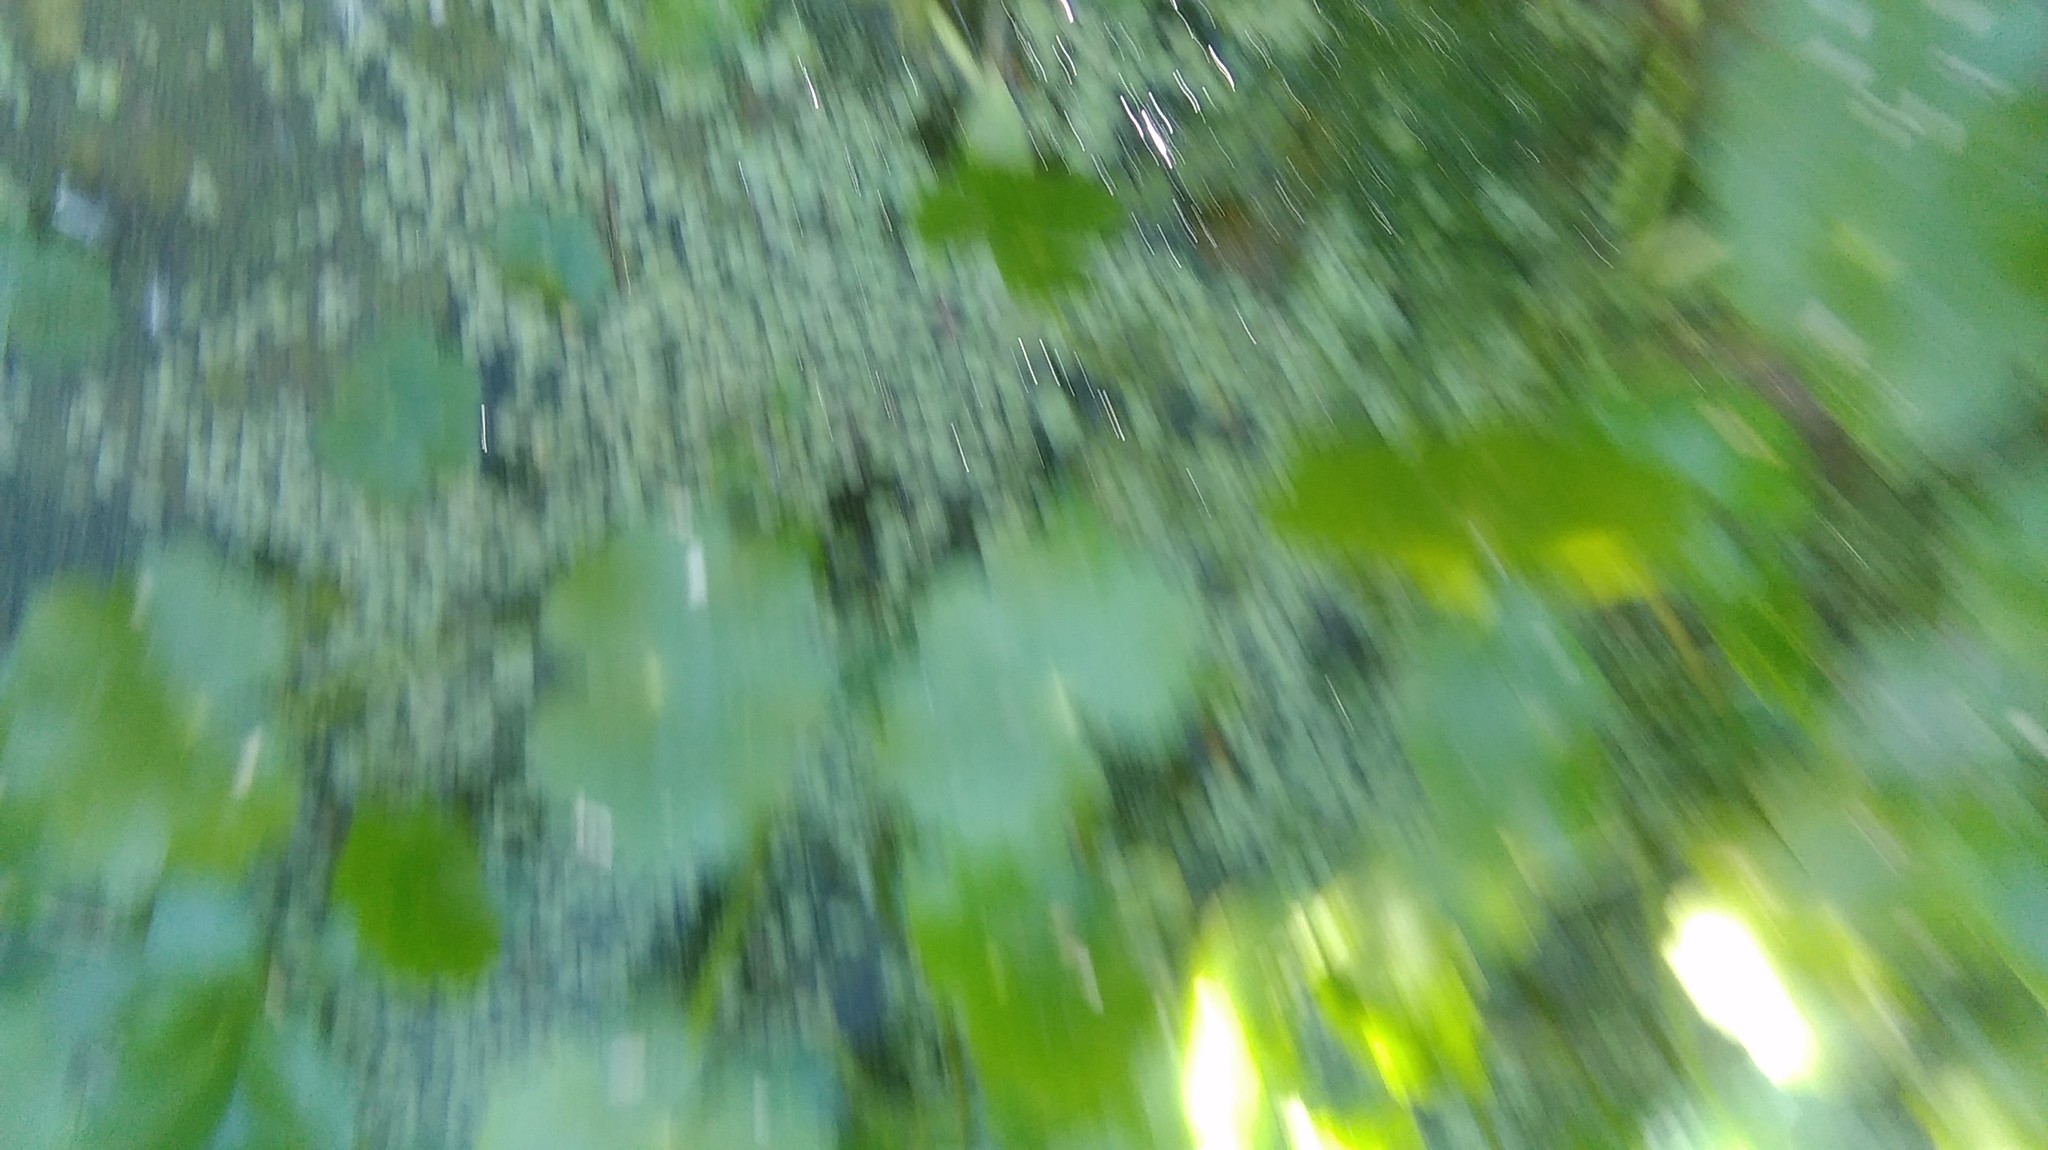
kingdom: Plantae
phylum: Tracheophyta
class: Magnoliopsida
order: Apiales
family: Araliaceae
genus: Hydrocotyle
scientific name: Hydrocotyle ranunculoides
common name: Floating pennywort
